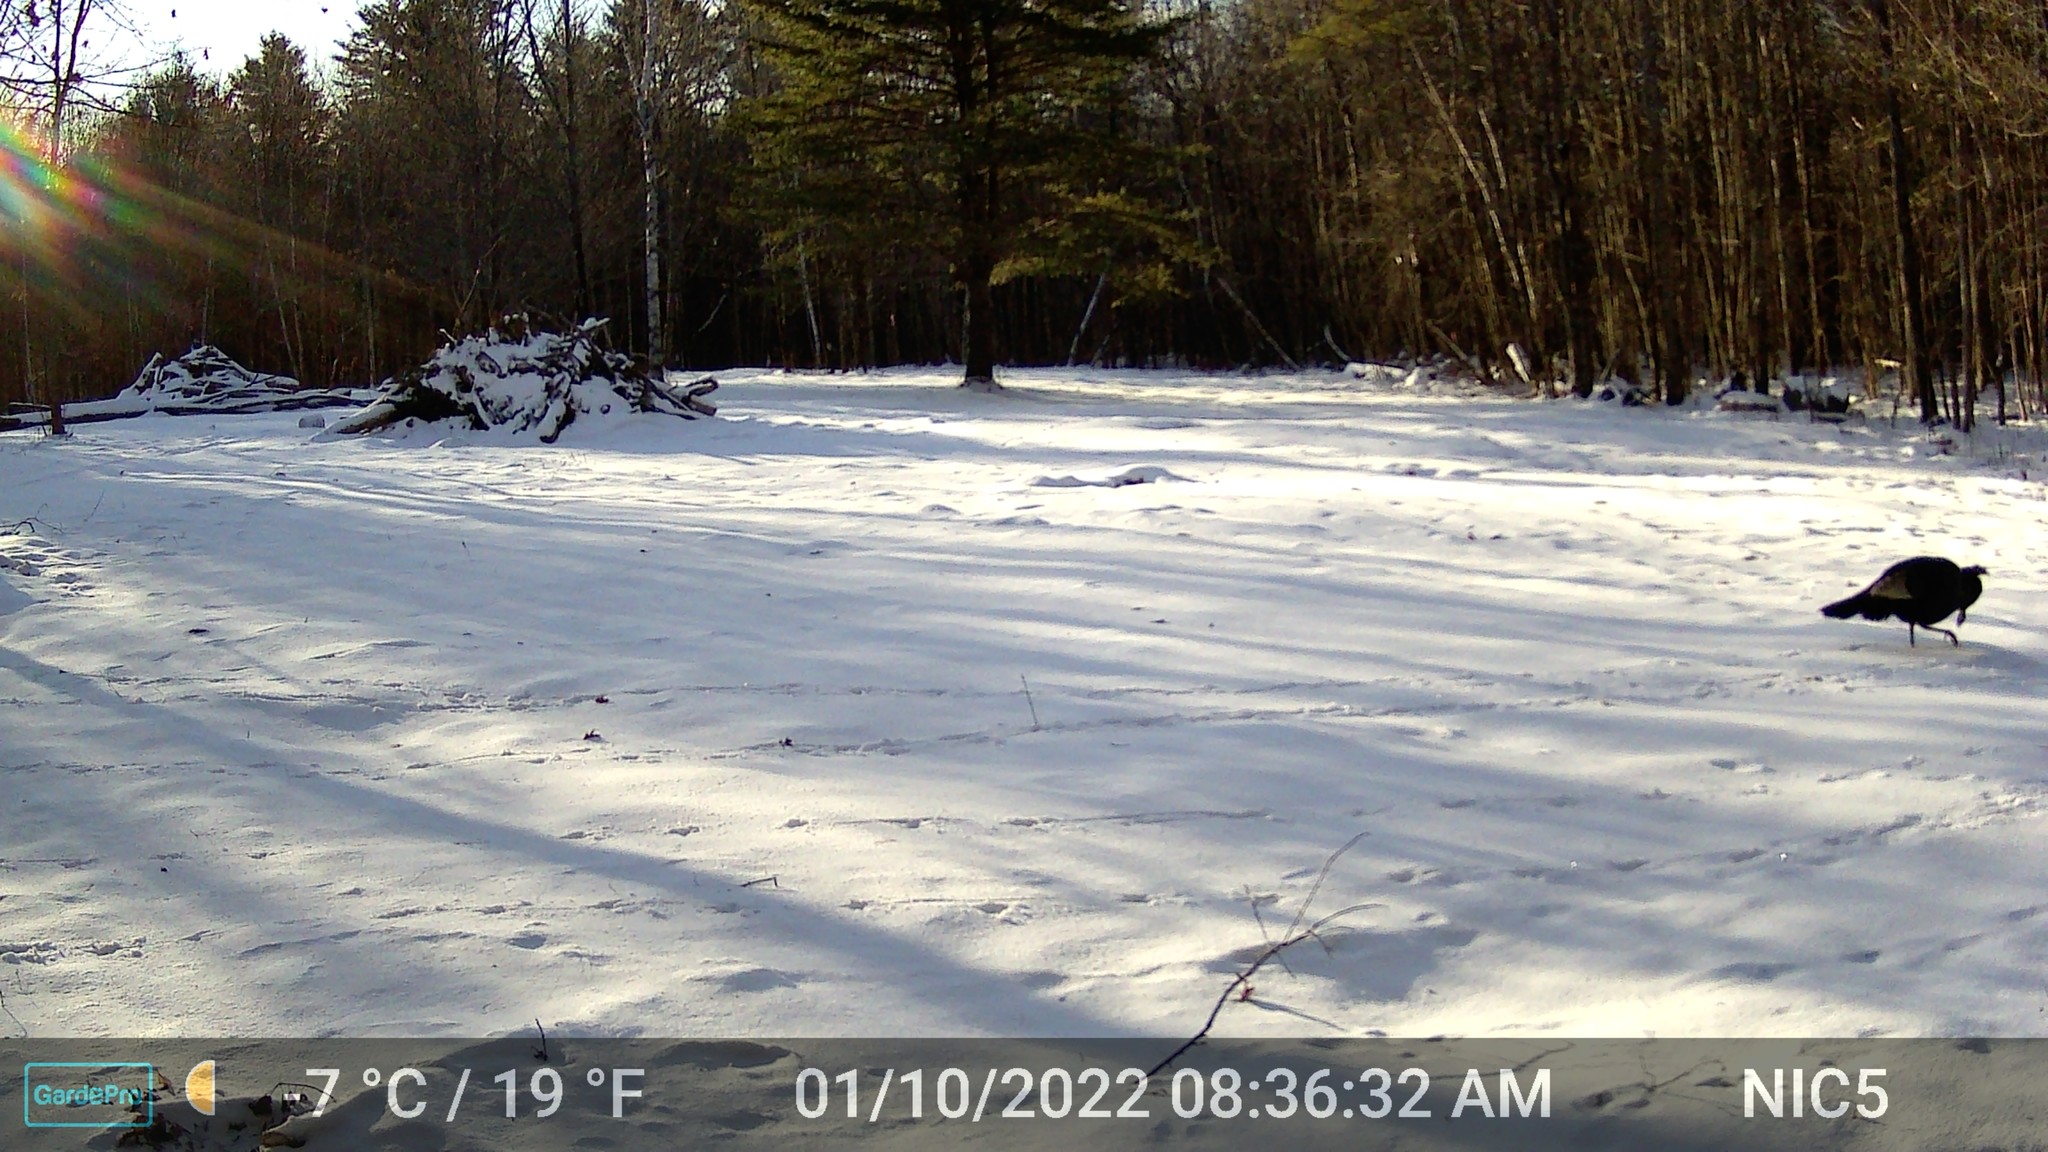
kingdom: Animalia
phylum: Chordata
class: Aves
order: Galliformes
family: Phasianidae
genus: Meleagris
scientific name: Meleagris gallopavo
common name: Wild turkey
